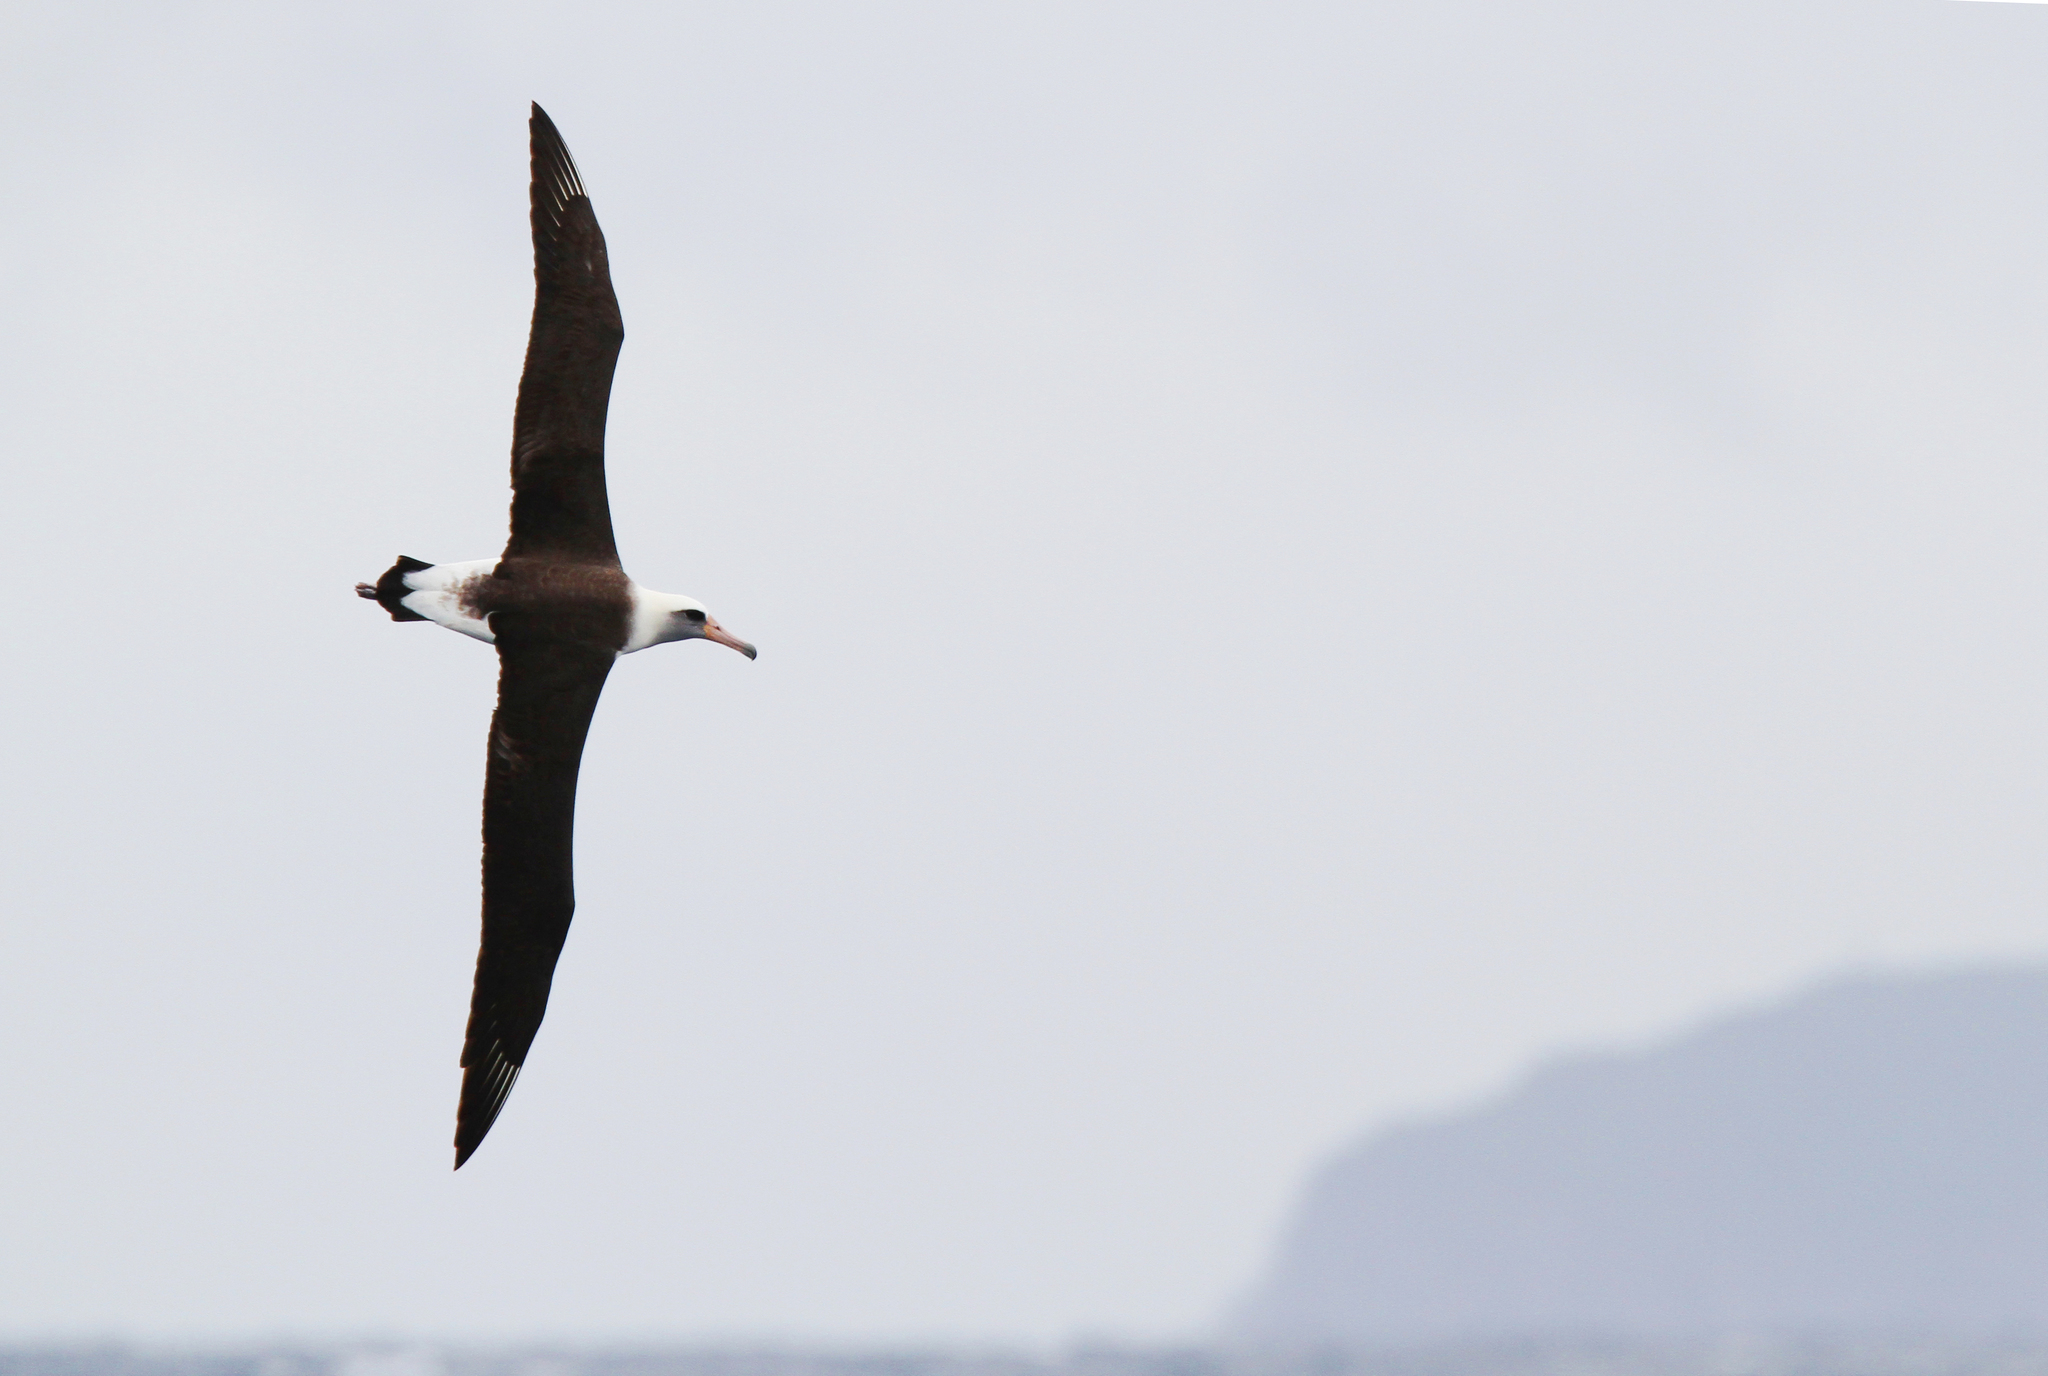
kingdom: Animalia
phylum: Chordata
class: Aves
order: Procellariiformes
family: Diomedeidae
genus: Phoebastria
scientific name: Phoebastria immutabilis
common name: Laysan albatross
